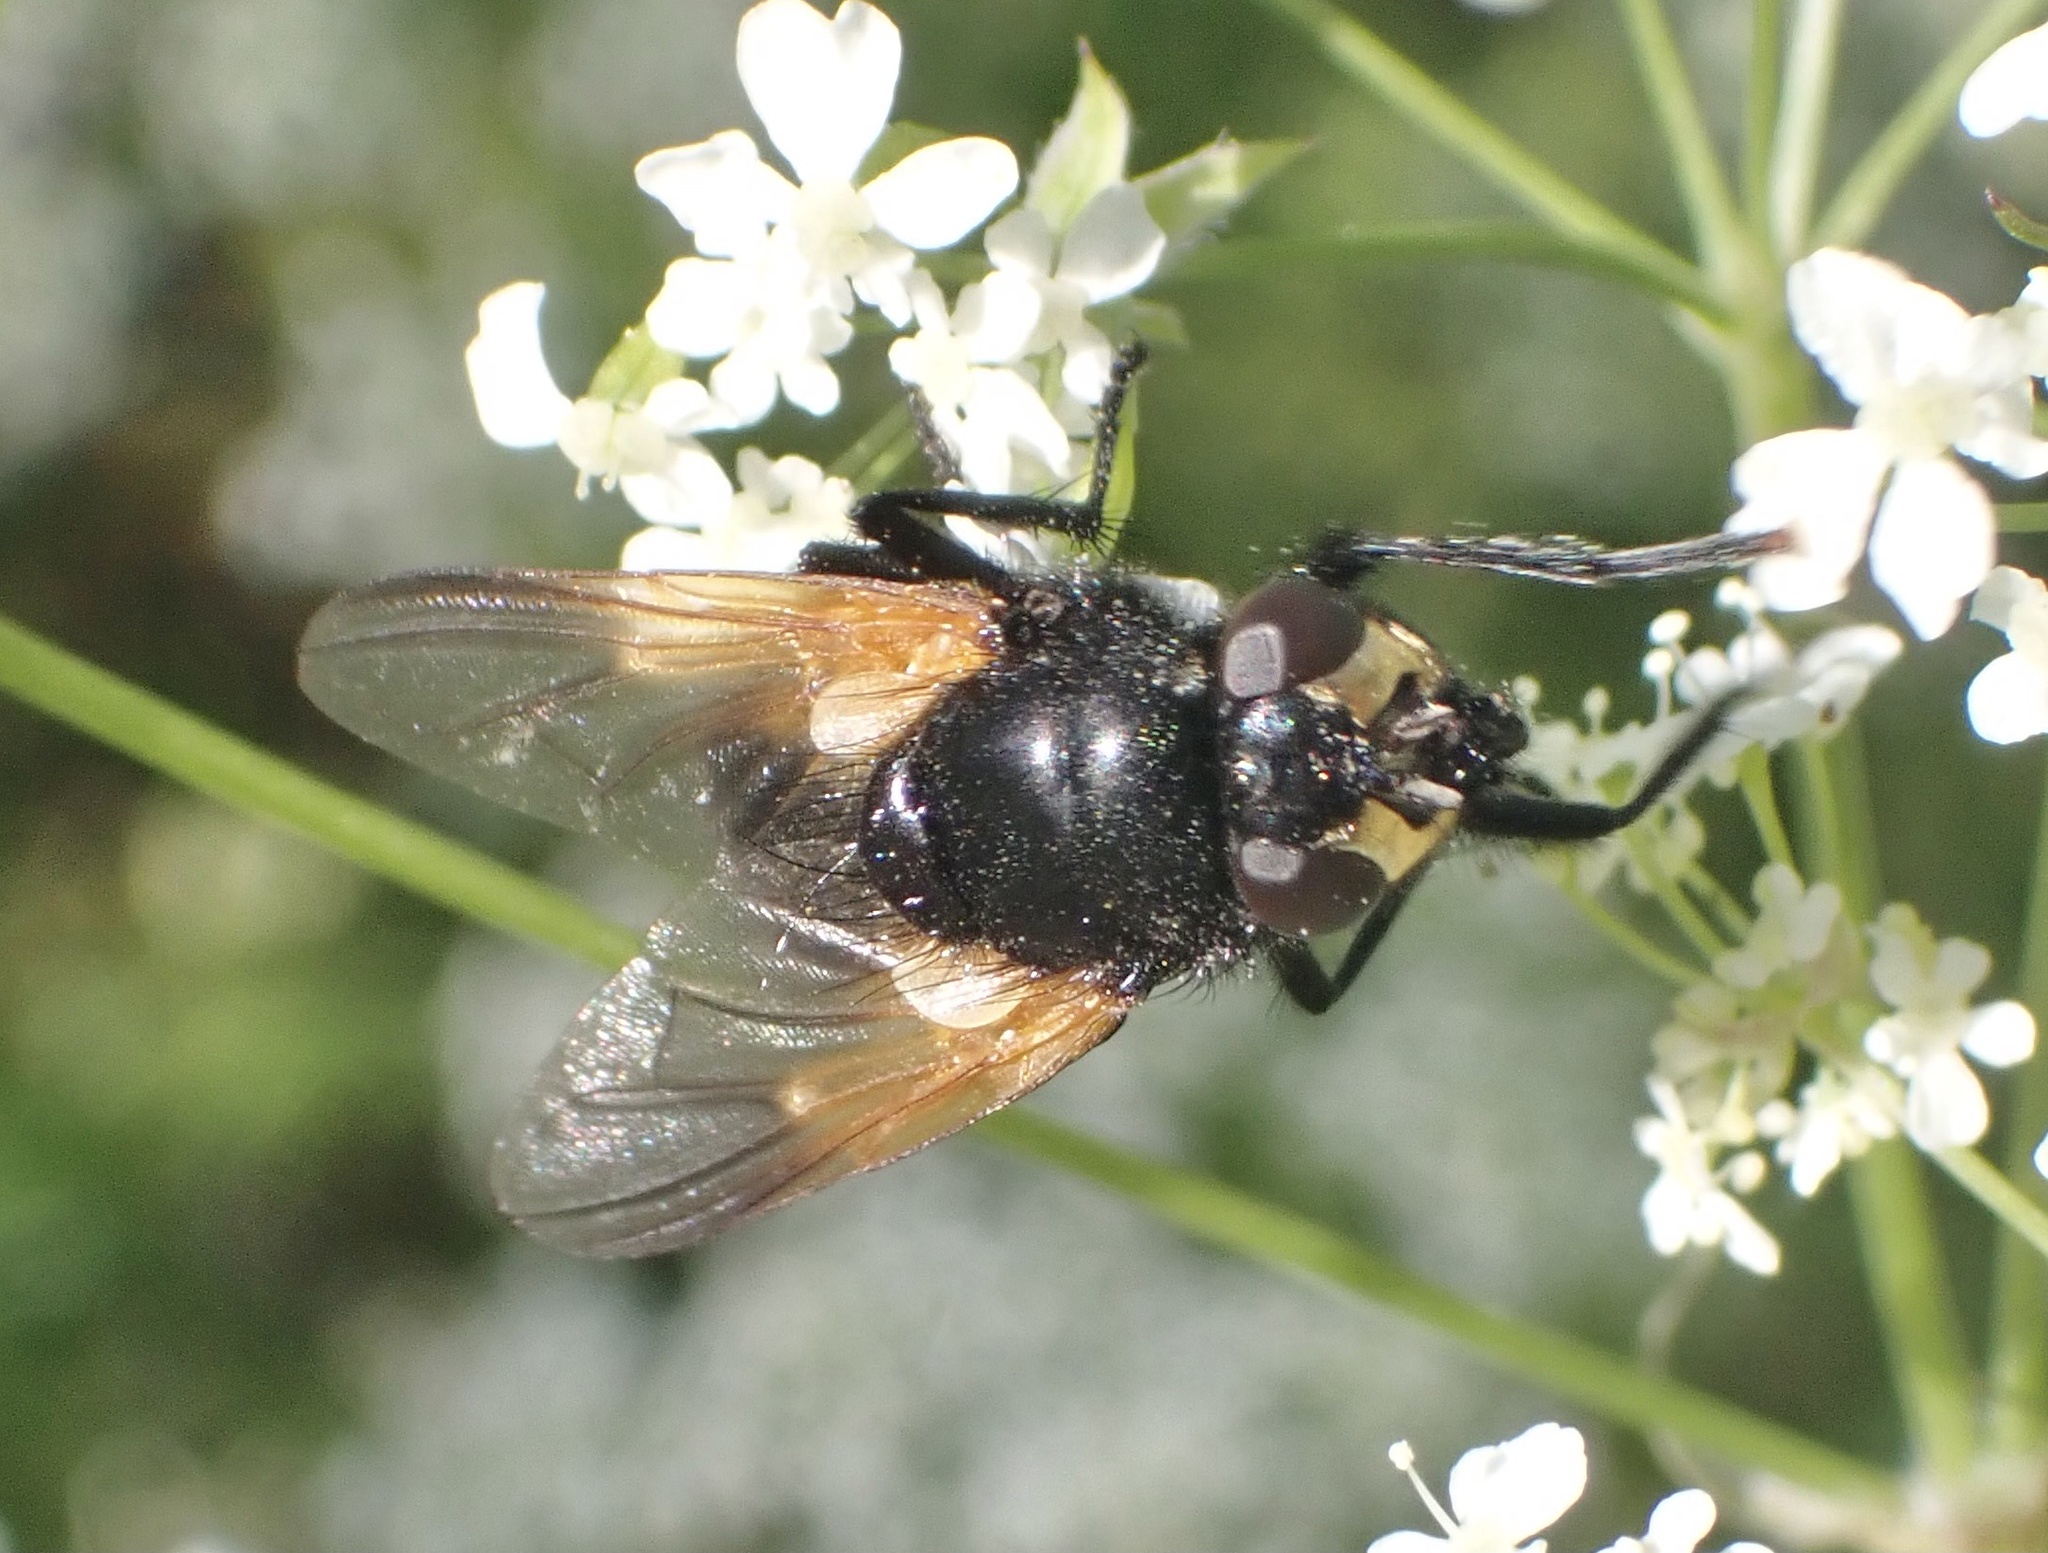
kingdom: Animalia
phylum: Arthropoda
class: Insecta
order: Diptera
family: Muscidae
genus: Mesembrina
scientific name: Mesembrina meridiana
